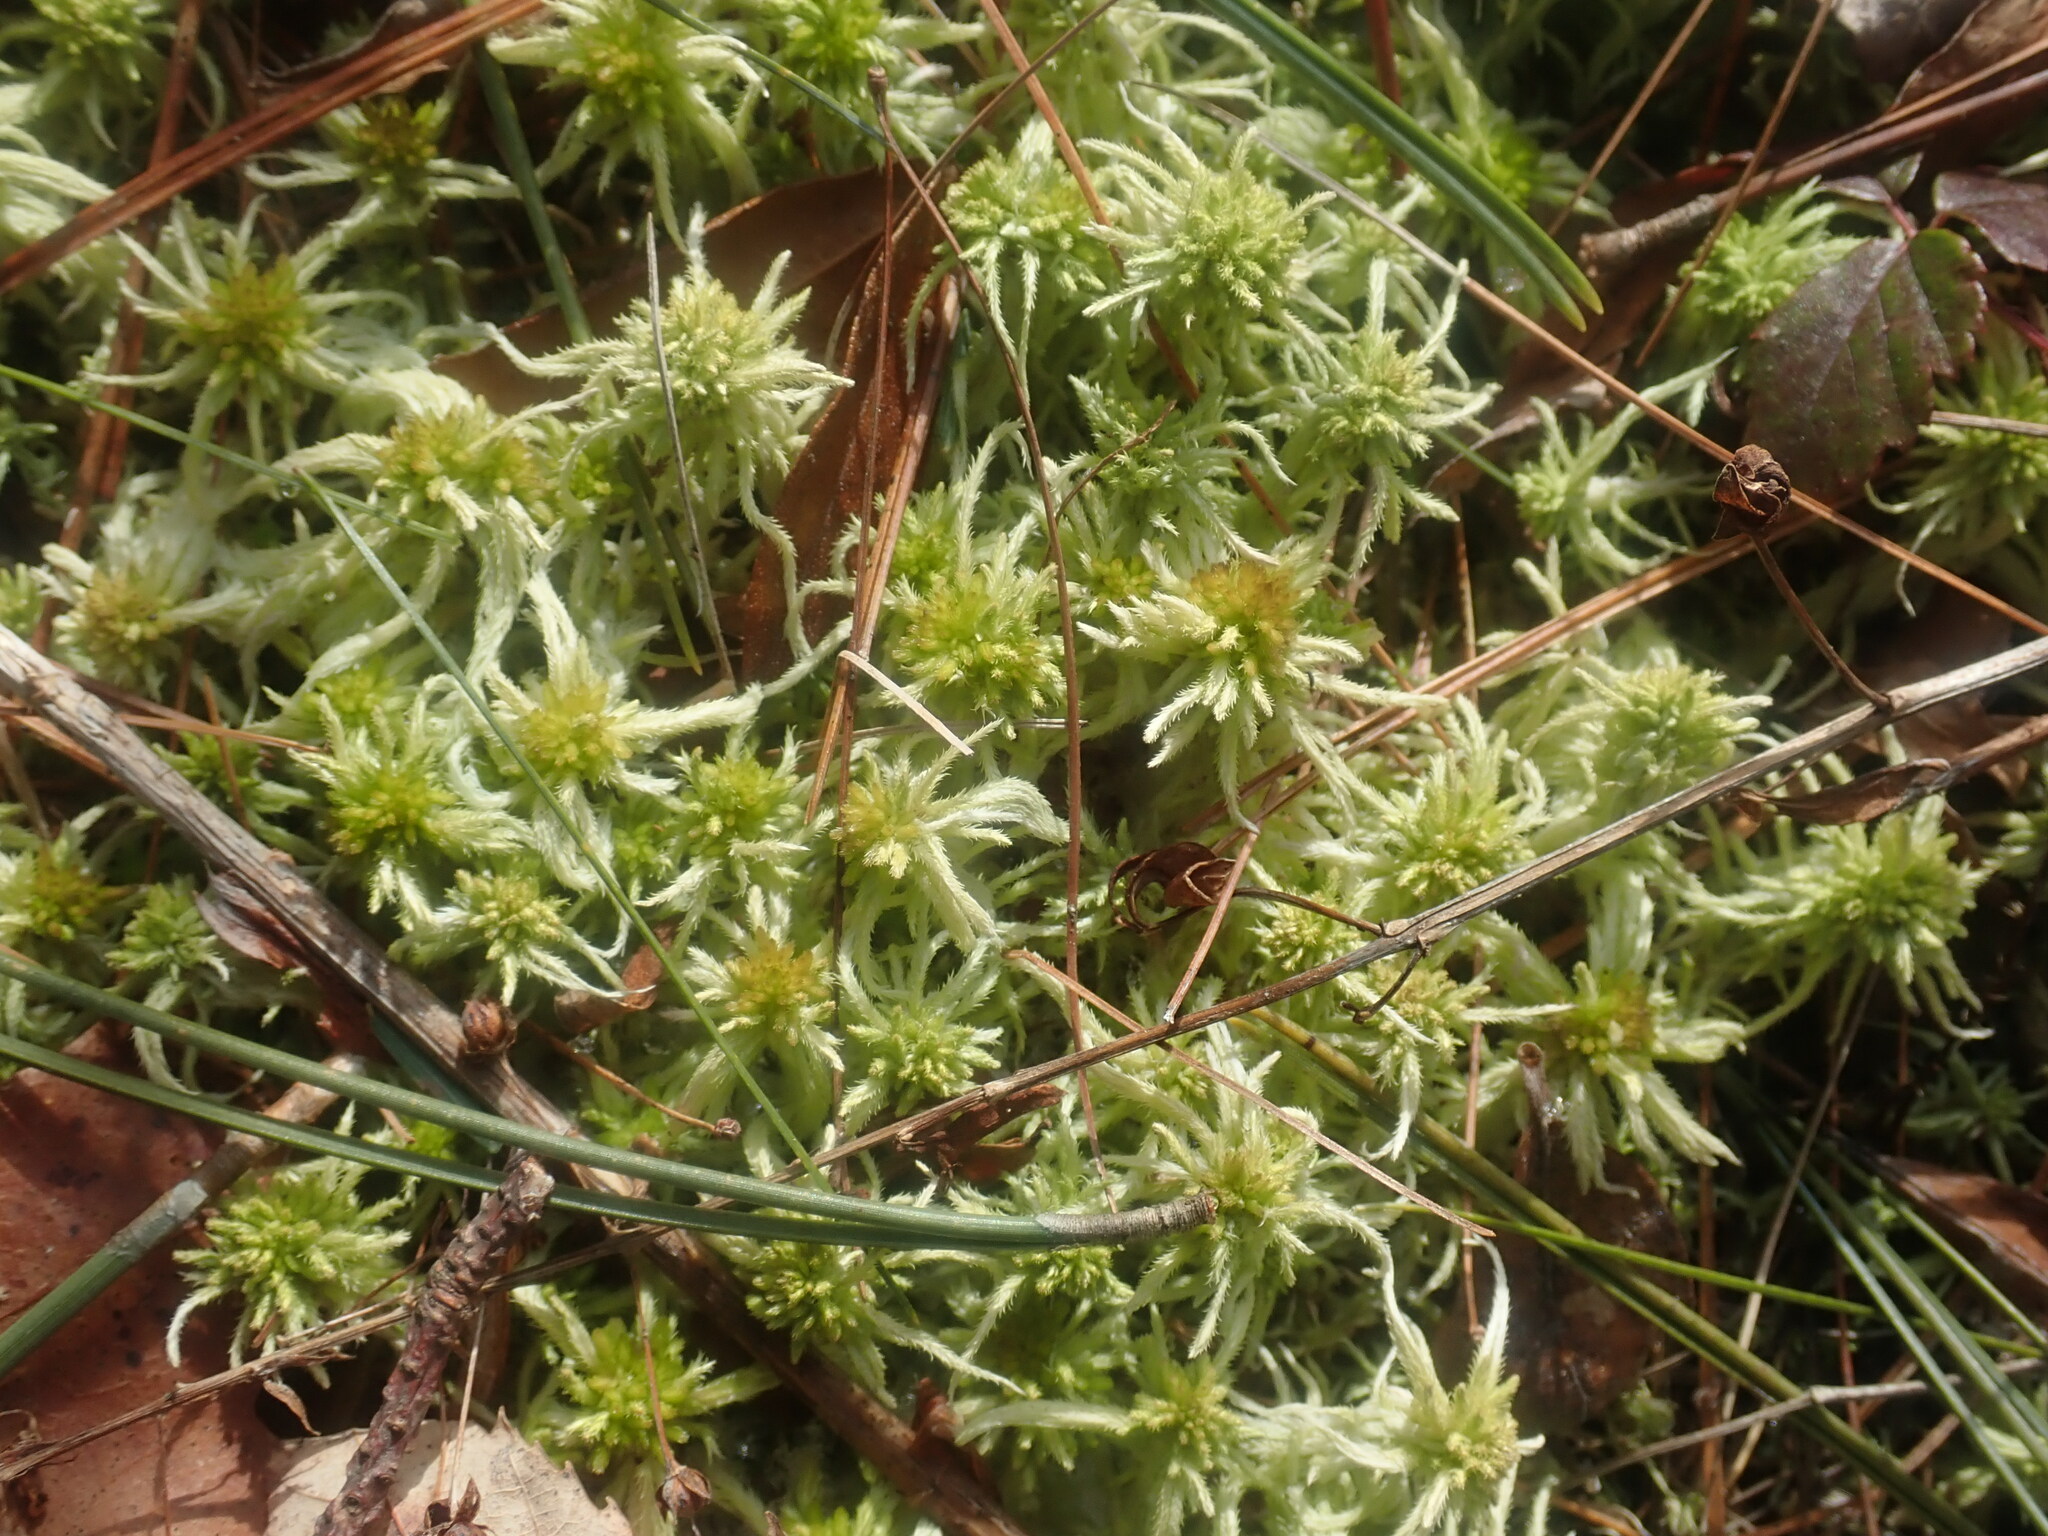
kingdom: Plantae
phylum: Bryophyta
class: Sphagnopsida
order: Sphagnales
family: Sphagnaceae
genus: Sphagnum
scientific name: Sphagnum
